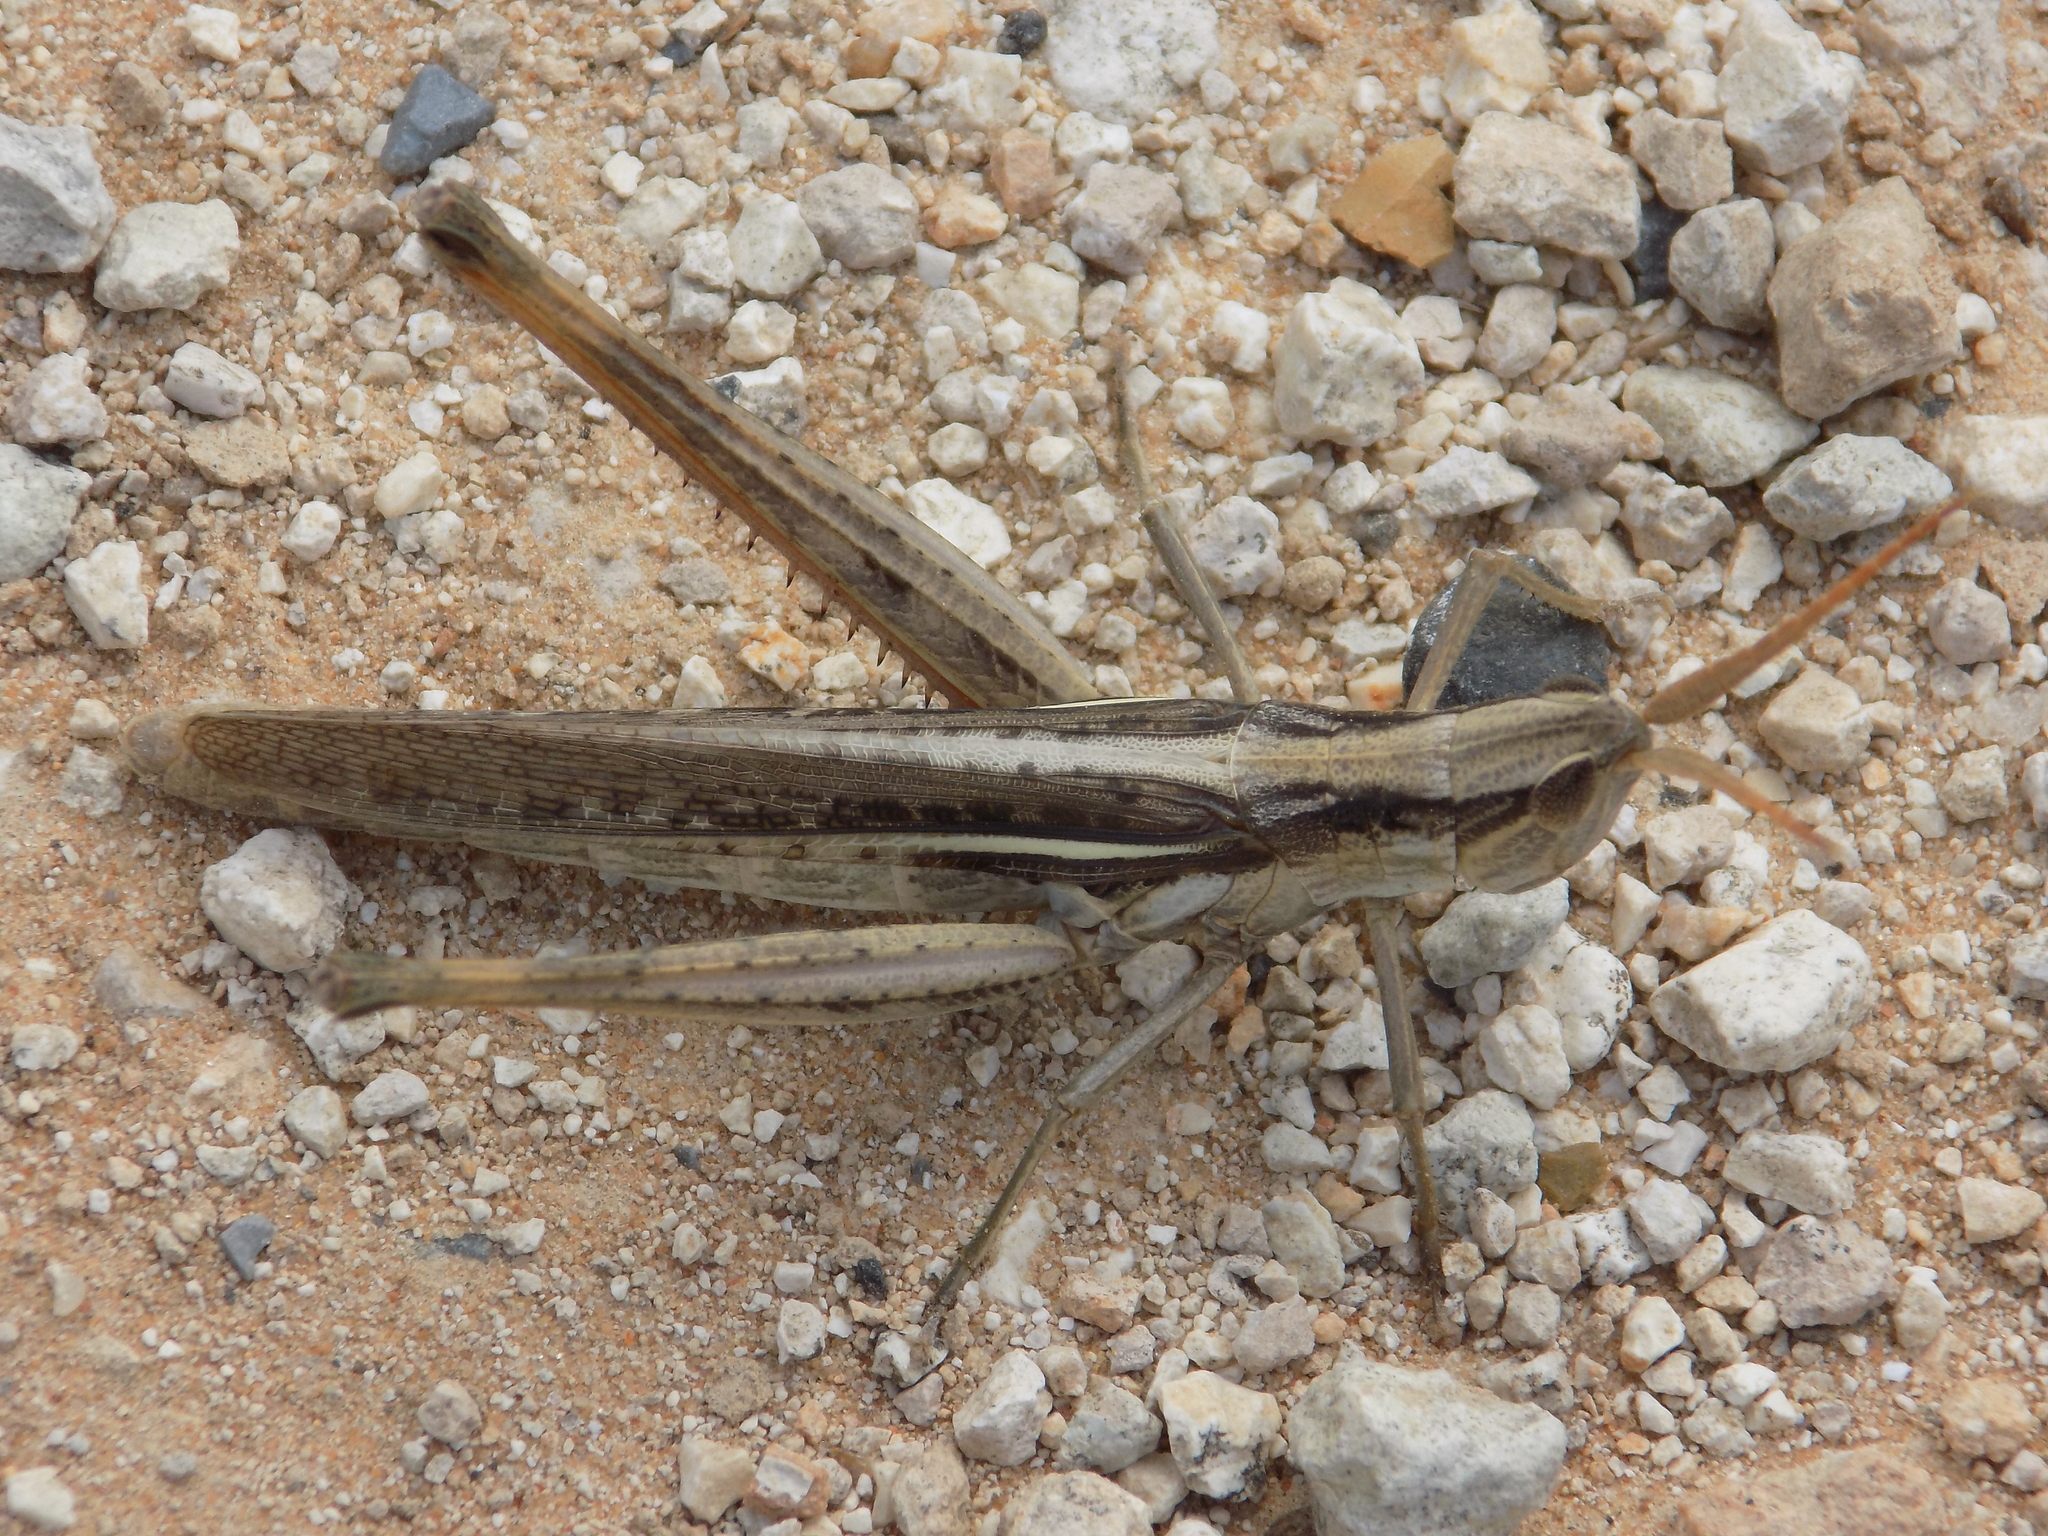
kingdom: Animalia
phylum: Arthropoda
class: Insecta
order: Orthoptera
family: Acrididae
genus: Mermiria
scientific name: Mermiria bivittata
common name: Two-striped mermiria grasshopper
